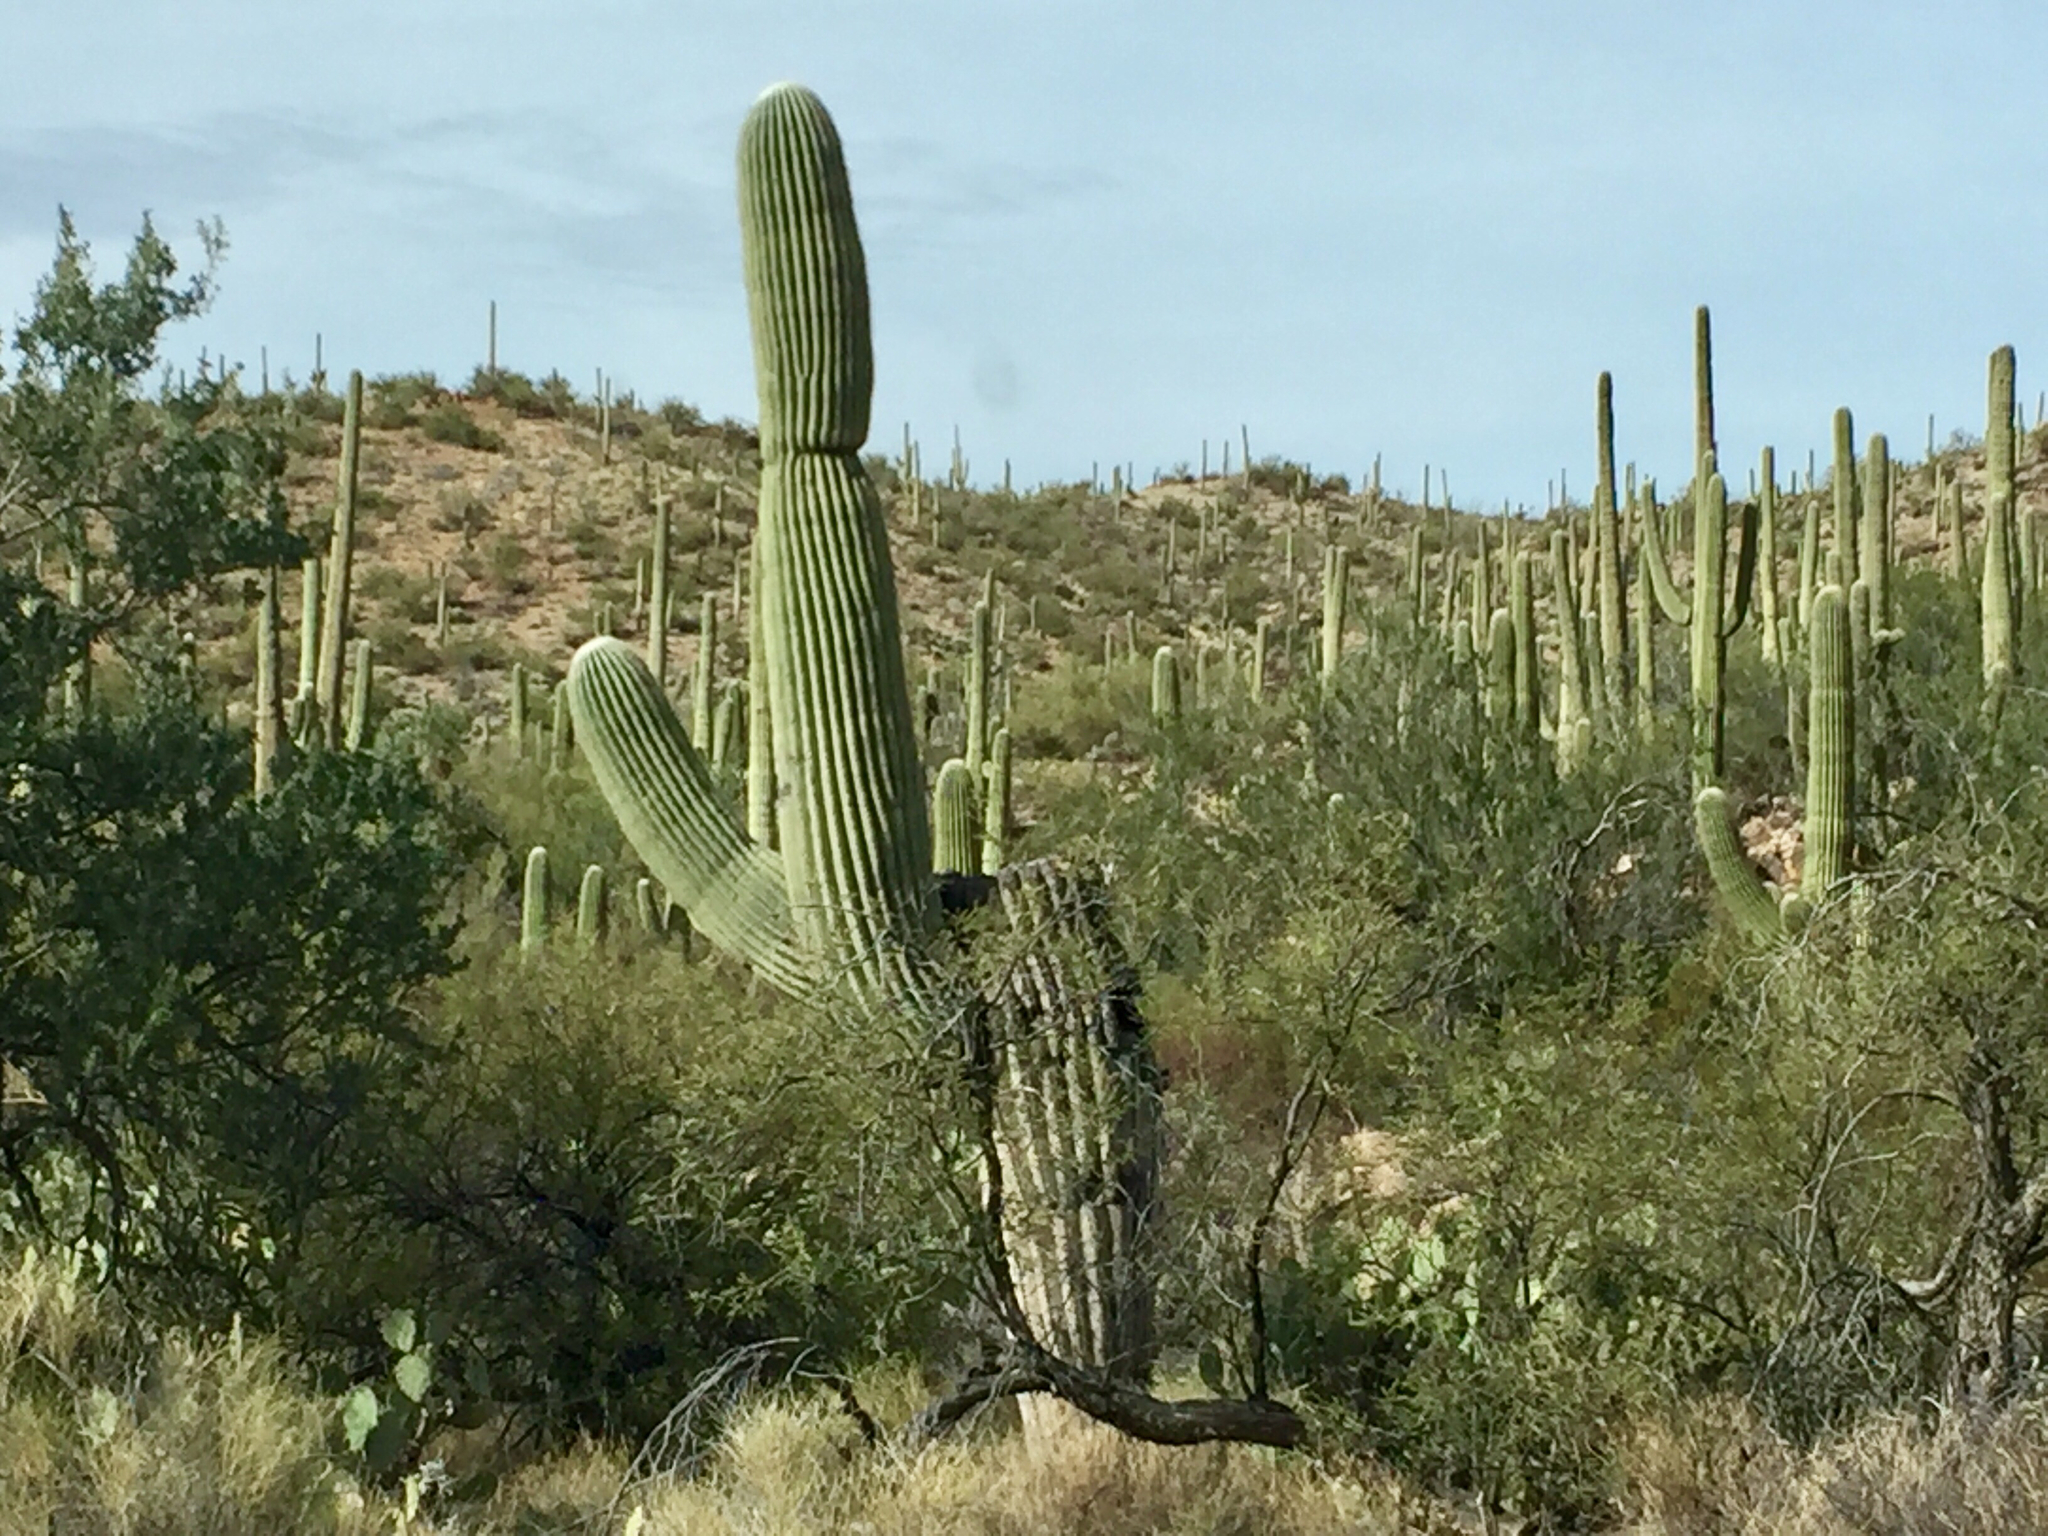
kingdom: Plantae
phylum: Tracheophyta
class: Magnoliopsida
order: Caryophyllales
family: Cactaceae
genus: Carnegiea
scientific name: Carnegiea gigantea
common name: Saguaro
